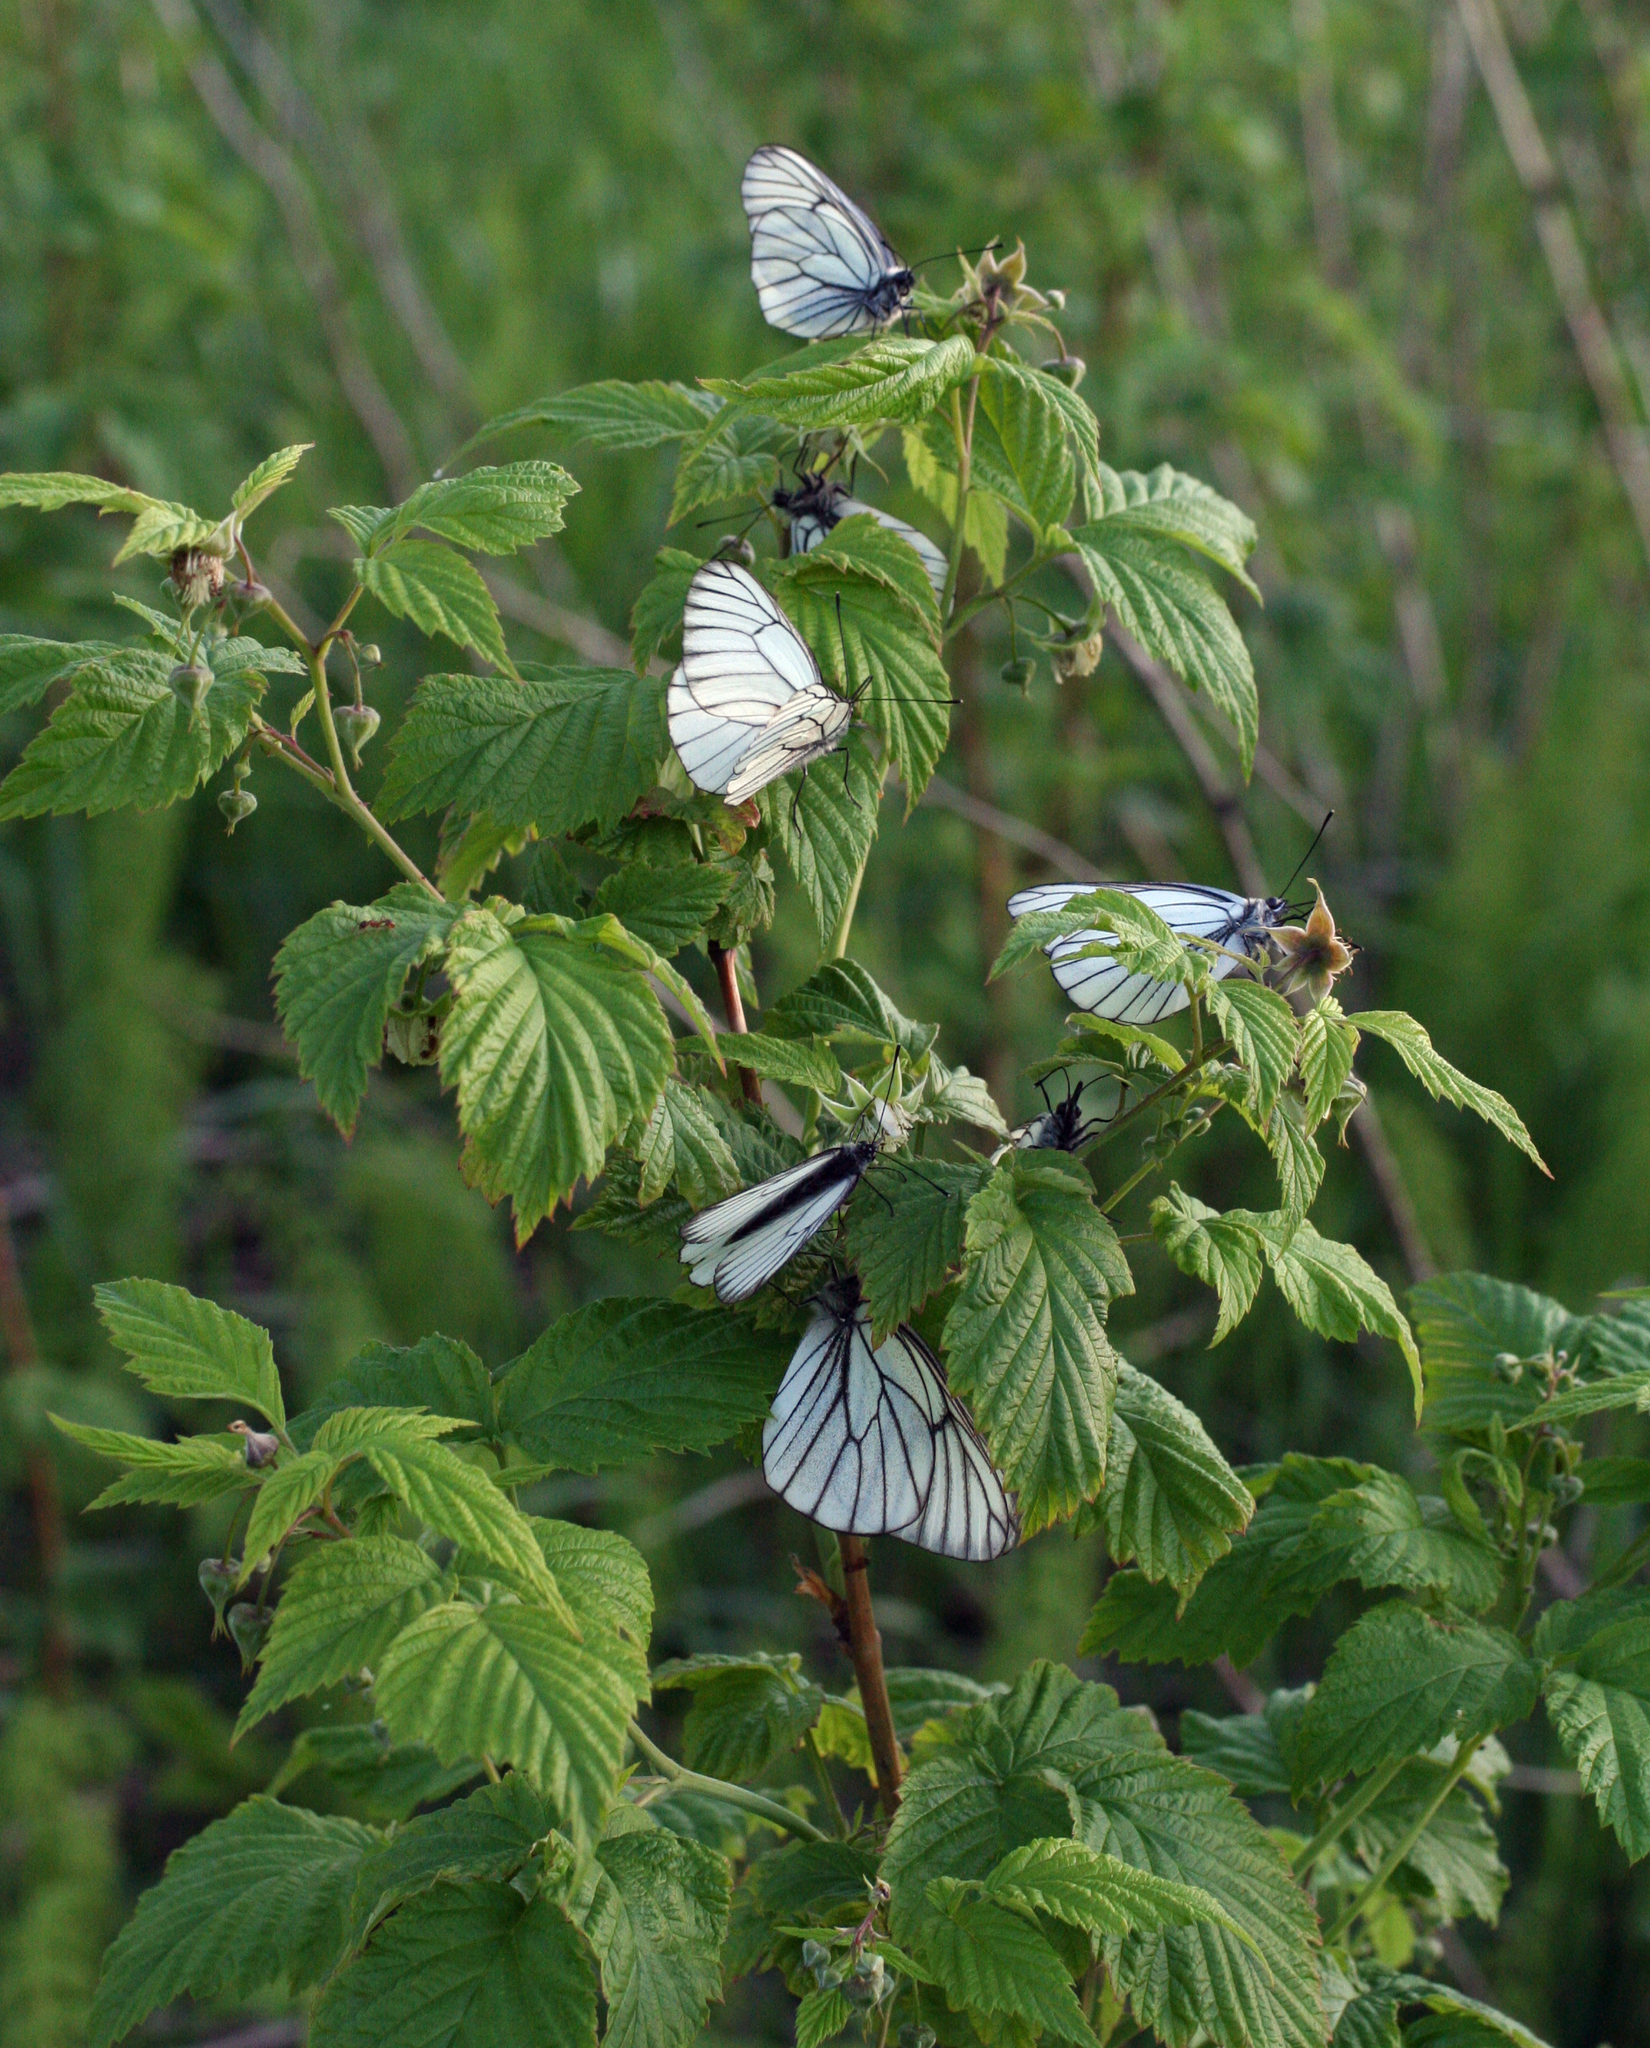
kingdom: Animalia
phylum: Arthropoda
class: Insecta
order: Lepidoptera
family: Pieridae
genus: Aporia
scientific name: Aporia crataegi
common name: Black-veined white
